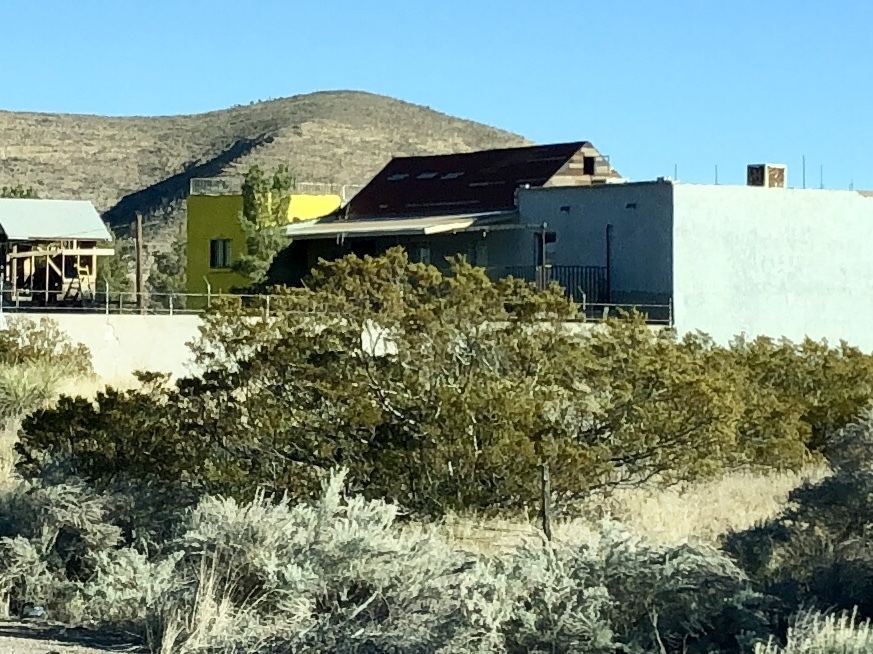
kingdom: Plantae
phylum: Tracheophyta
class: Magnoliopsida
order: Zygophyllales
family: Zygophyllaceae
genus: Larrea
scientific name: Larrea tridentata
